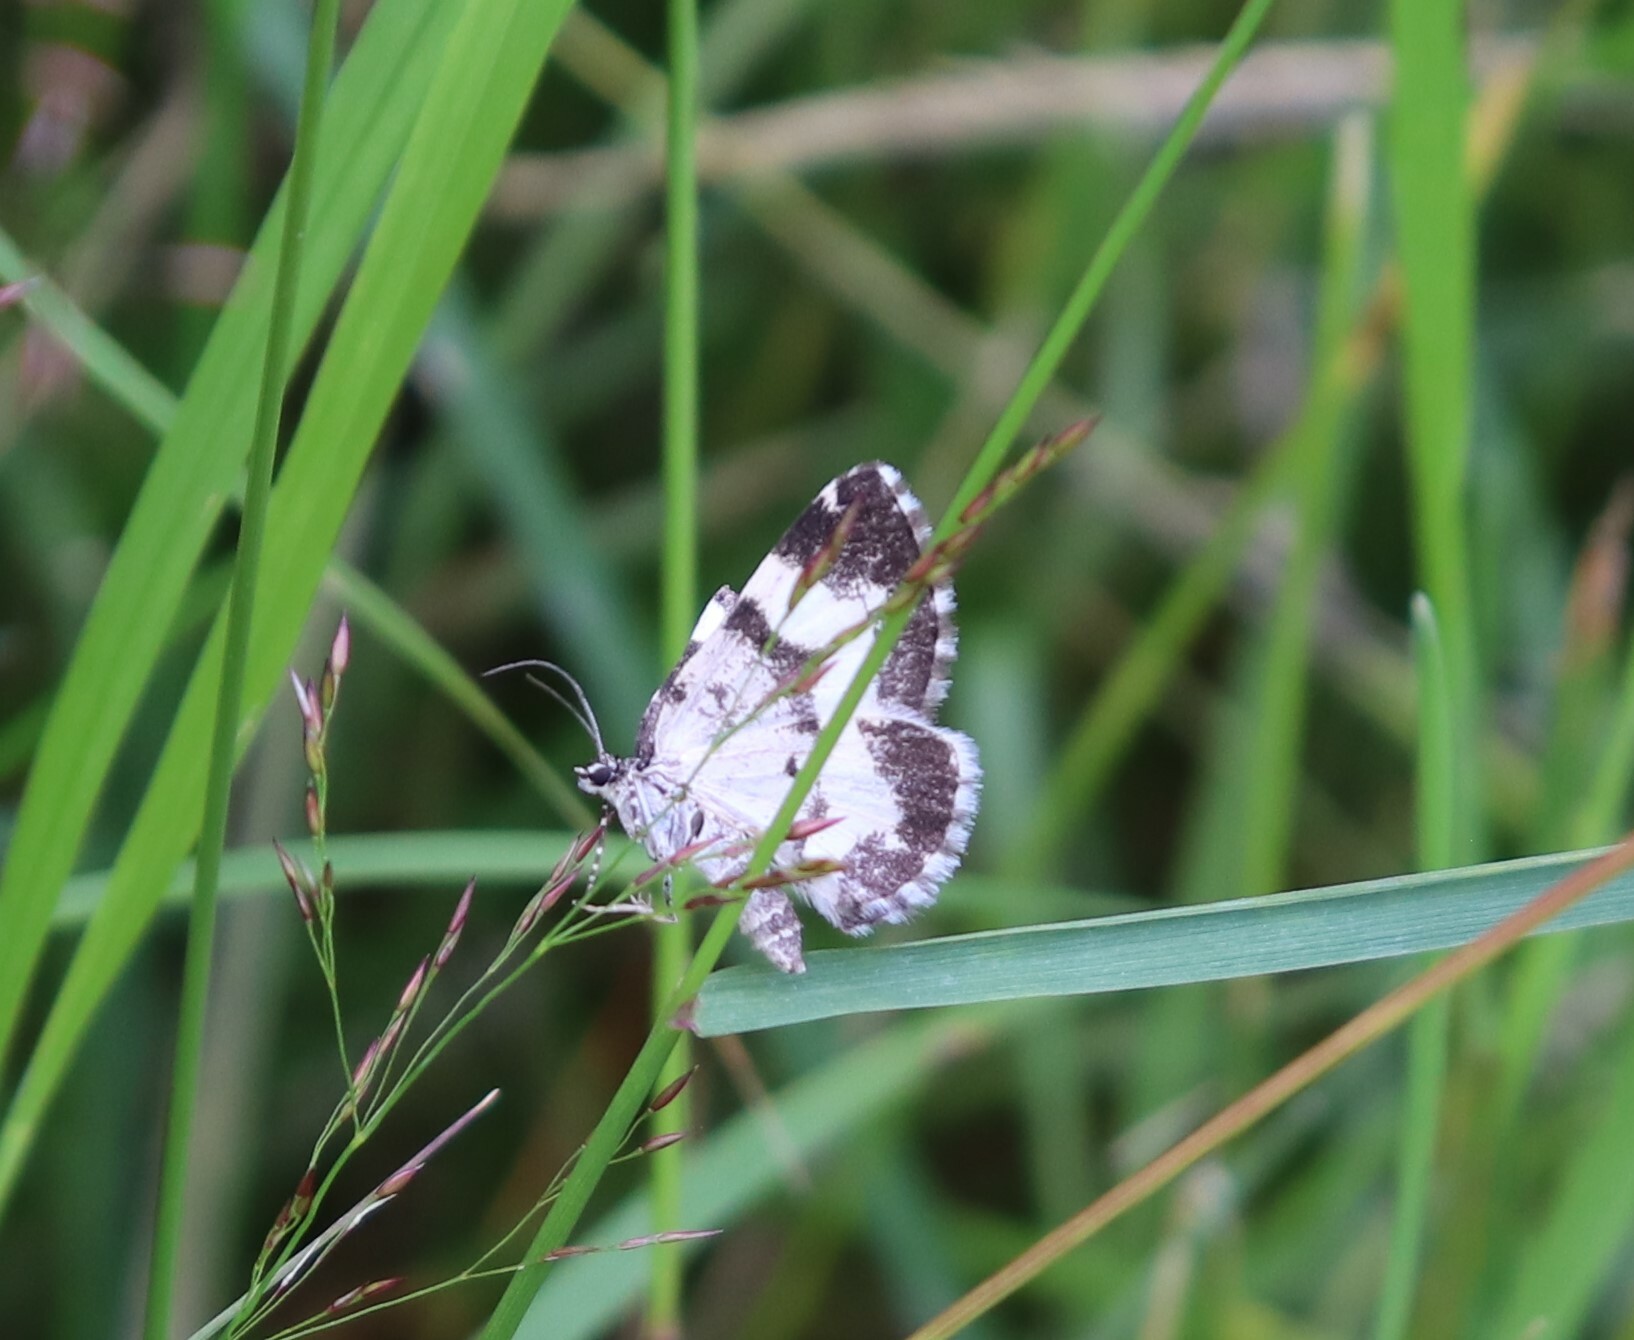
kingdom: Animalia
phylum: Arthropoda
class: Insecta
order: Lepidoptera
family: Geometridae
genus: Spargania
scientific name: Spargania luctuata
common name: White-banded carpet
